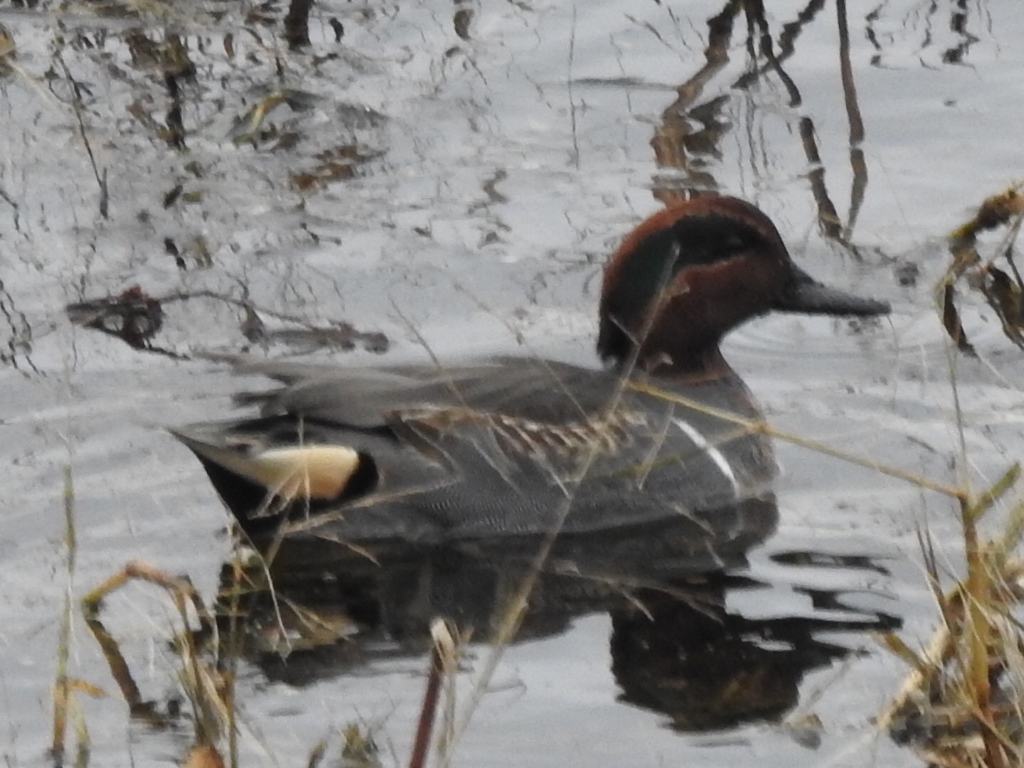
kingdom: Animalia
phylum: Chordata
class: Aves
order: Anseriformes
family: Anatidae
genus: Anas
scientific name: Anas crecca
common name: Eurasian teal
